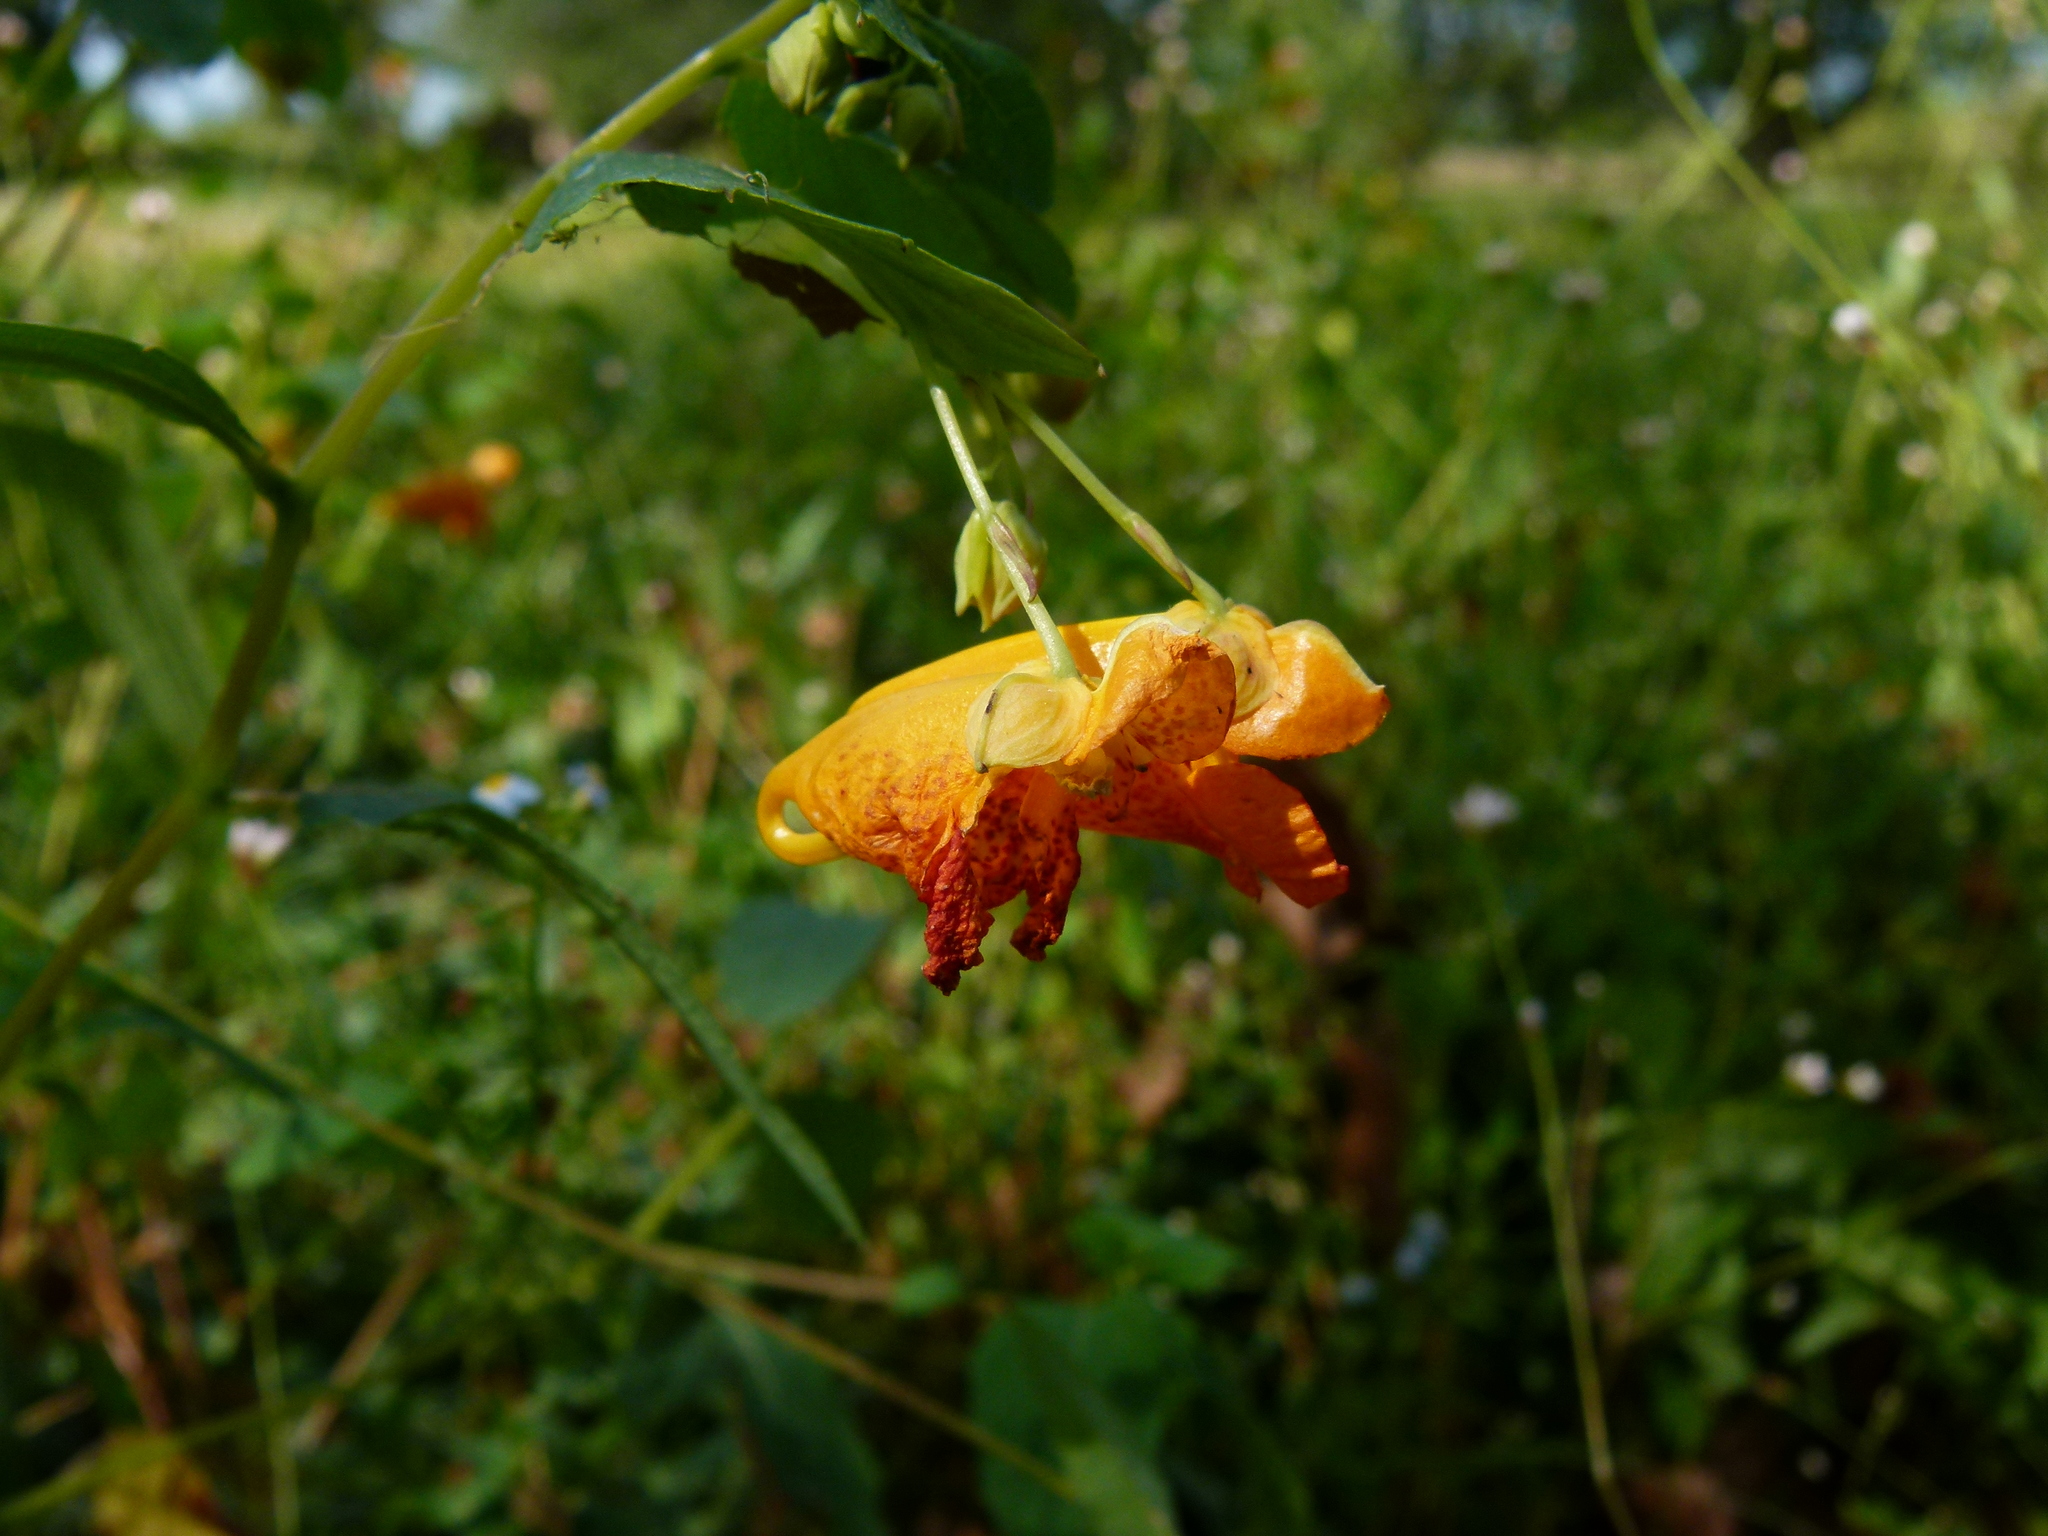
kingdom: Plantae
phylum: Tracheophyta
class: Magnoliopsida
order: Ericales
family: Balsaminaceae
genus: Impatiens
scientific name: Impatiens capensis
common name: Orange balsam
